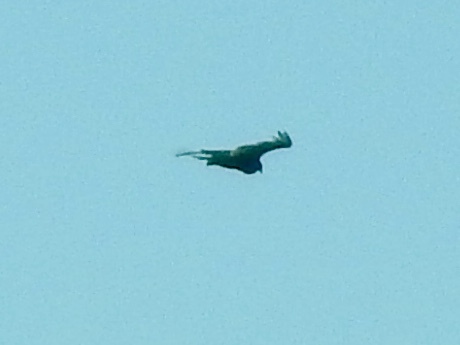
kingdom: Animalia
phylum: Chordata
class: Aves
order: Accipitriformes
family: Cathartidae
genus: Cathartes
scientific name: Cathartes aura
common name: Turkey vulture
